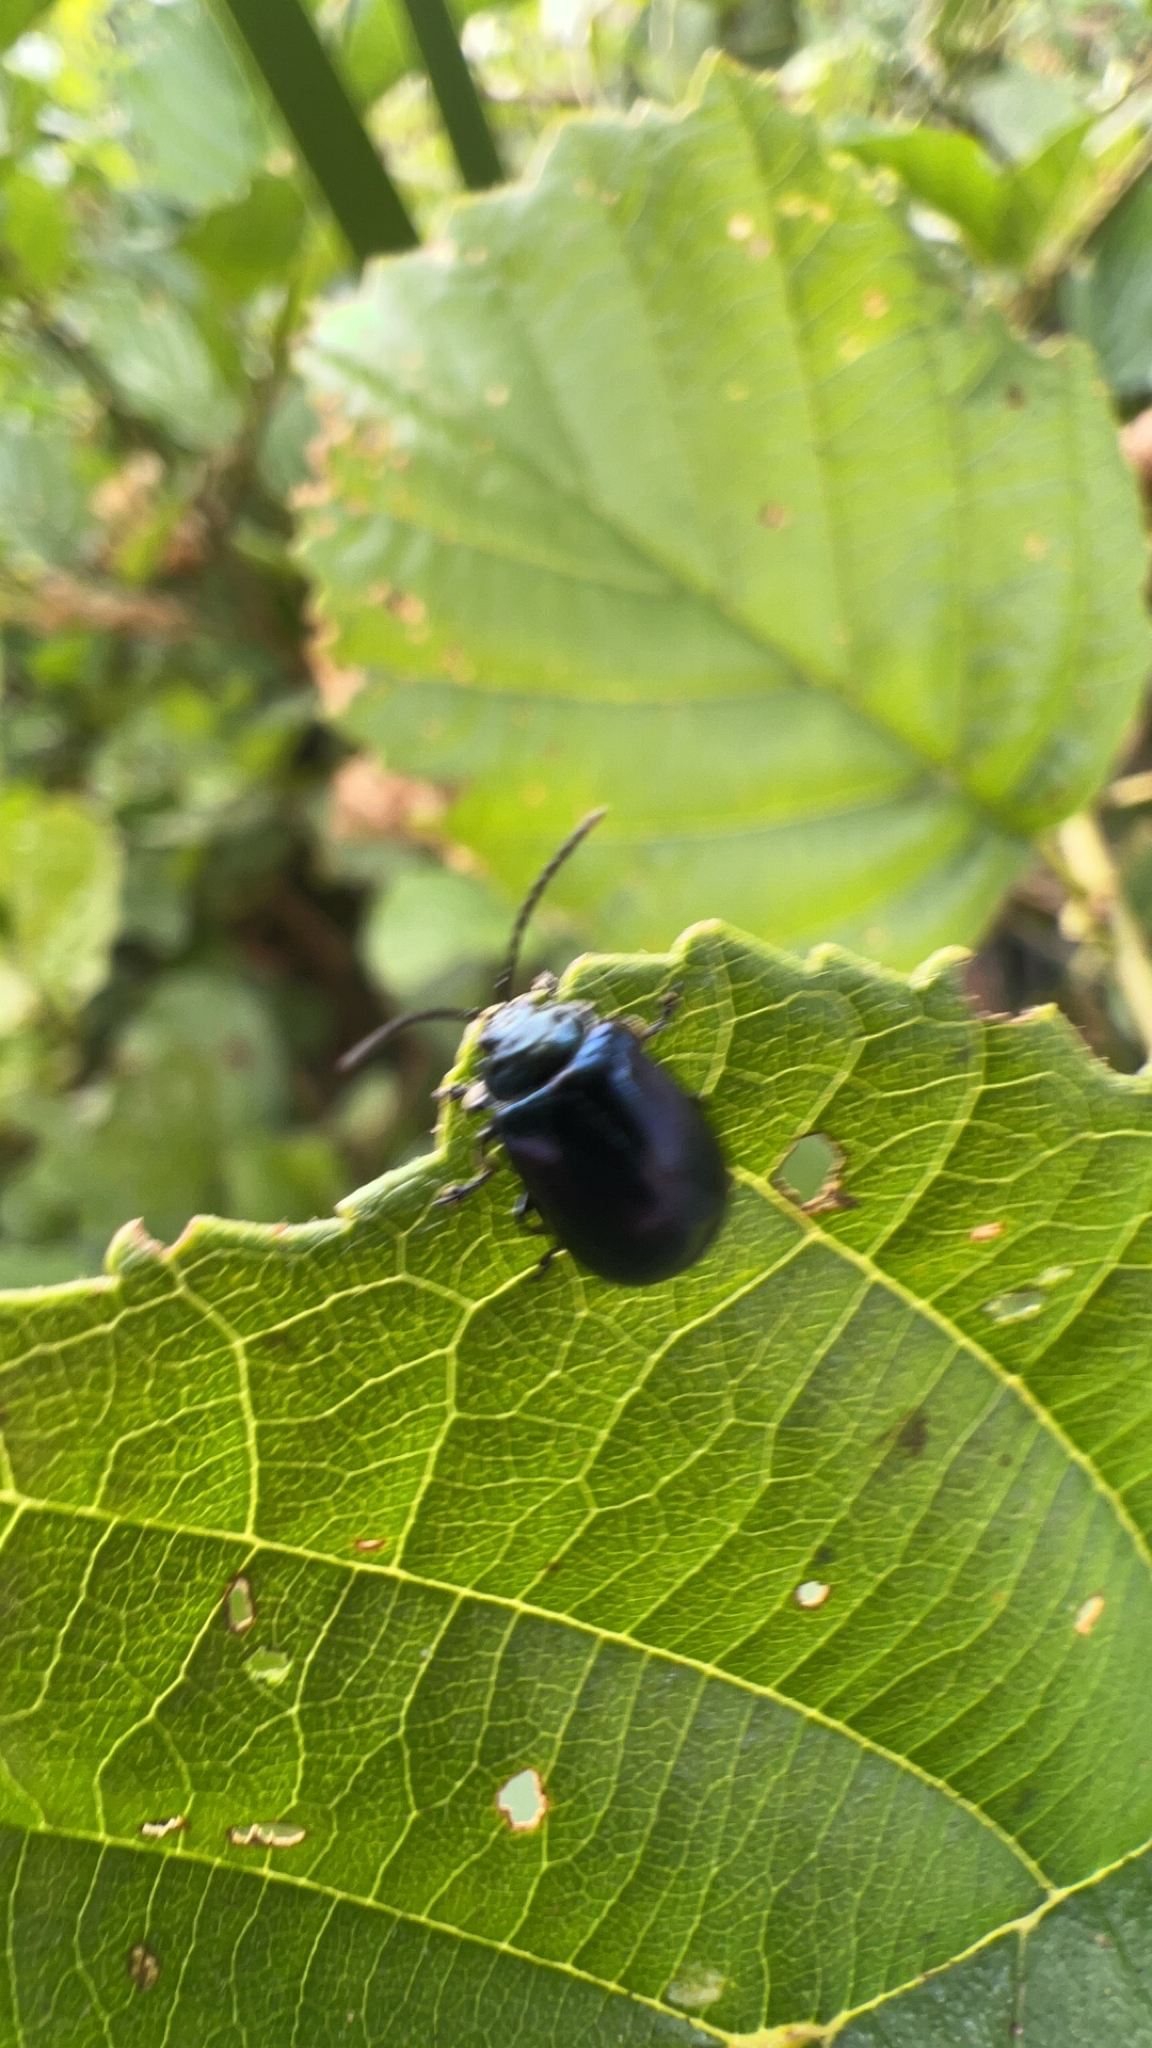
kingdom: Animalia
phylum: Arthropoda
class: Insecta
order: Coleoptera
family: Chrysomelidae
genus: Agelastica
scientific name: Agelastica alni
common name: Alder leaf beetle
